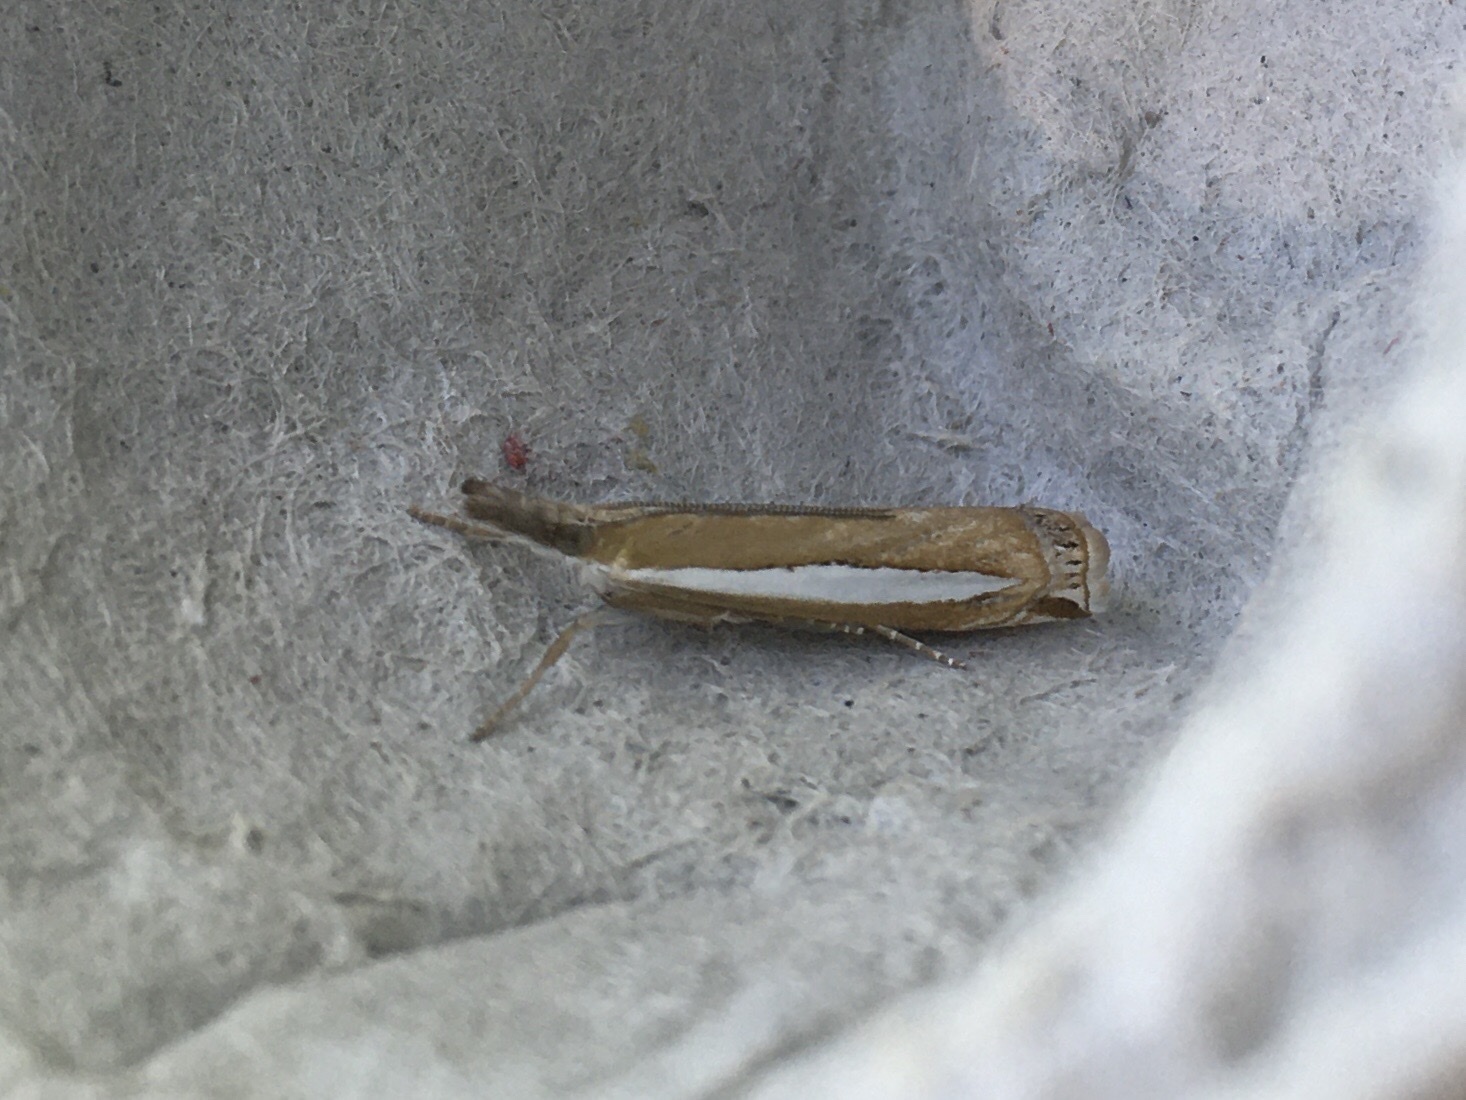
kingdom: Animalia
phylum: Arthropoda
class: Insecta
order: Lepidoptera
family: Crambidae
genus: Crambus
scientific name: Crambus praefectellus
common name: Common grass-veneer
